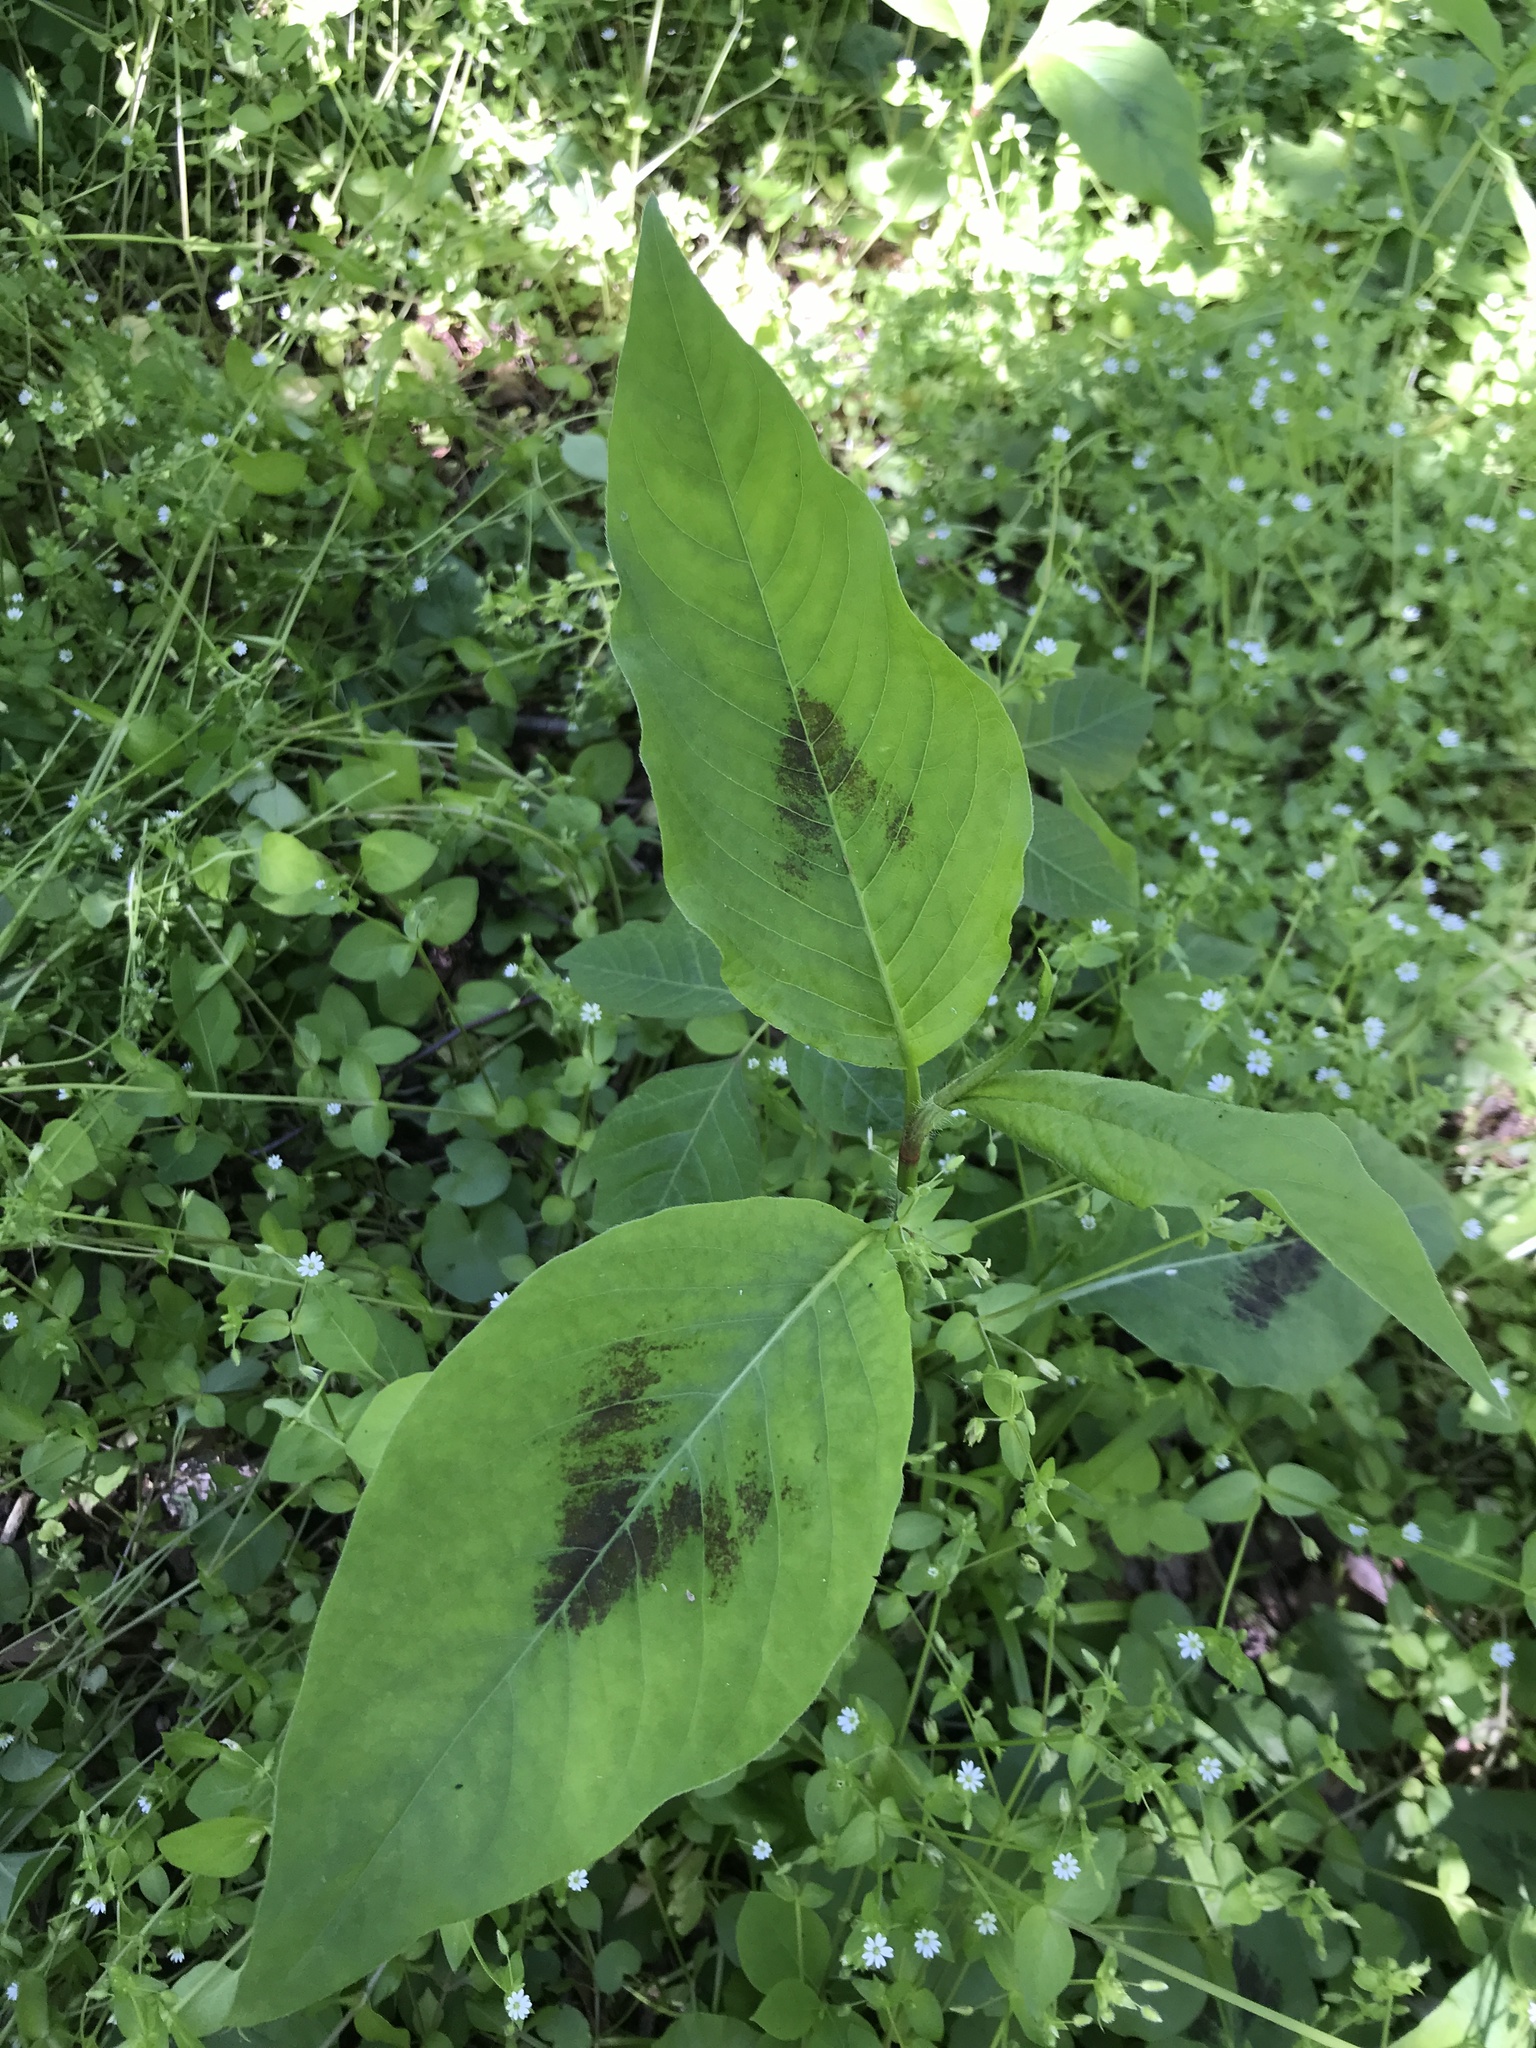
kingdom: Plantae
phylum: Tracheophyta
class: Magnoliopsida
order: Caryophyllales
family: Polygonaceae
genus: Persicaria
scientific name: Persicaria virginiana
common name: Jumpseed
